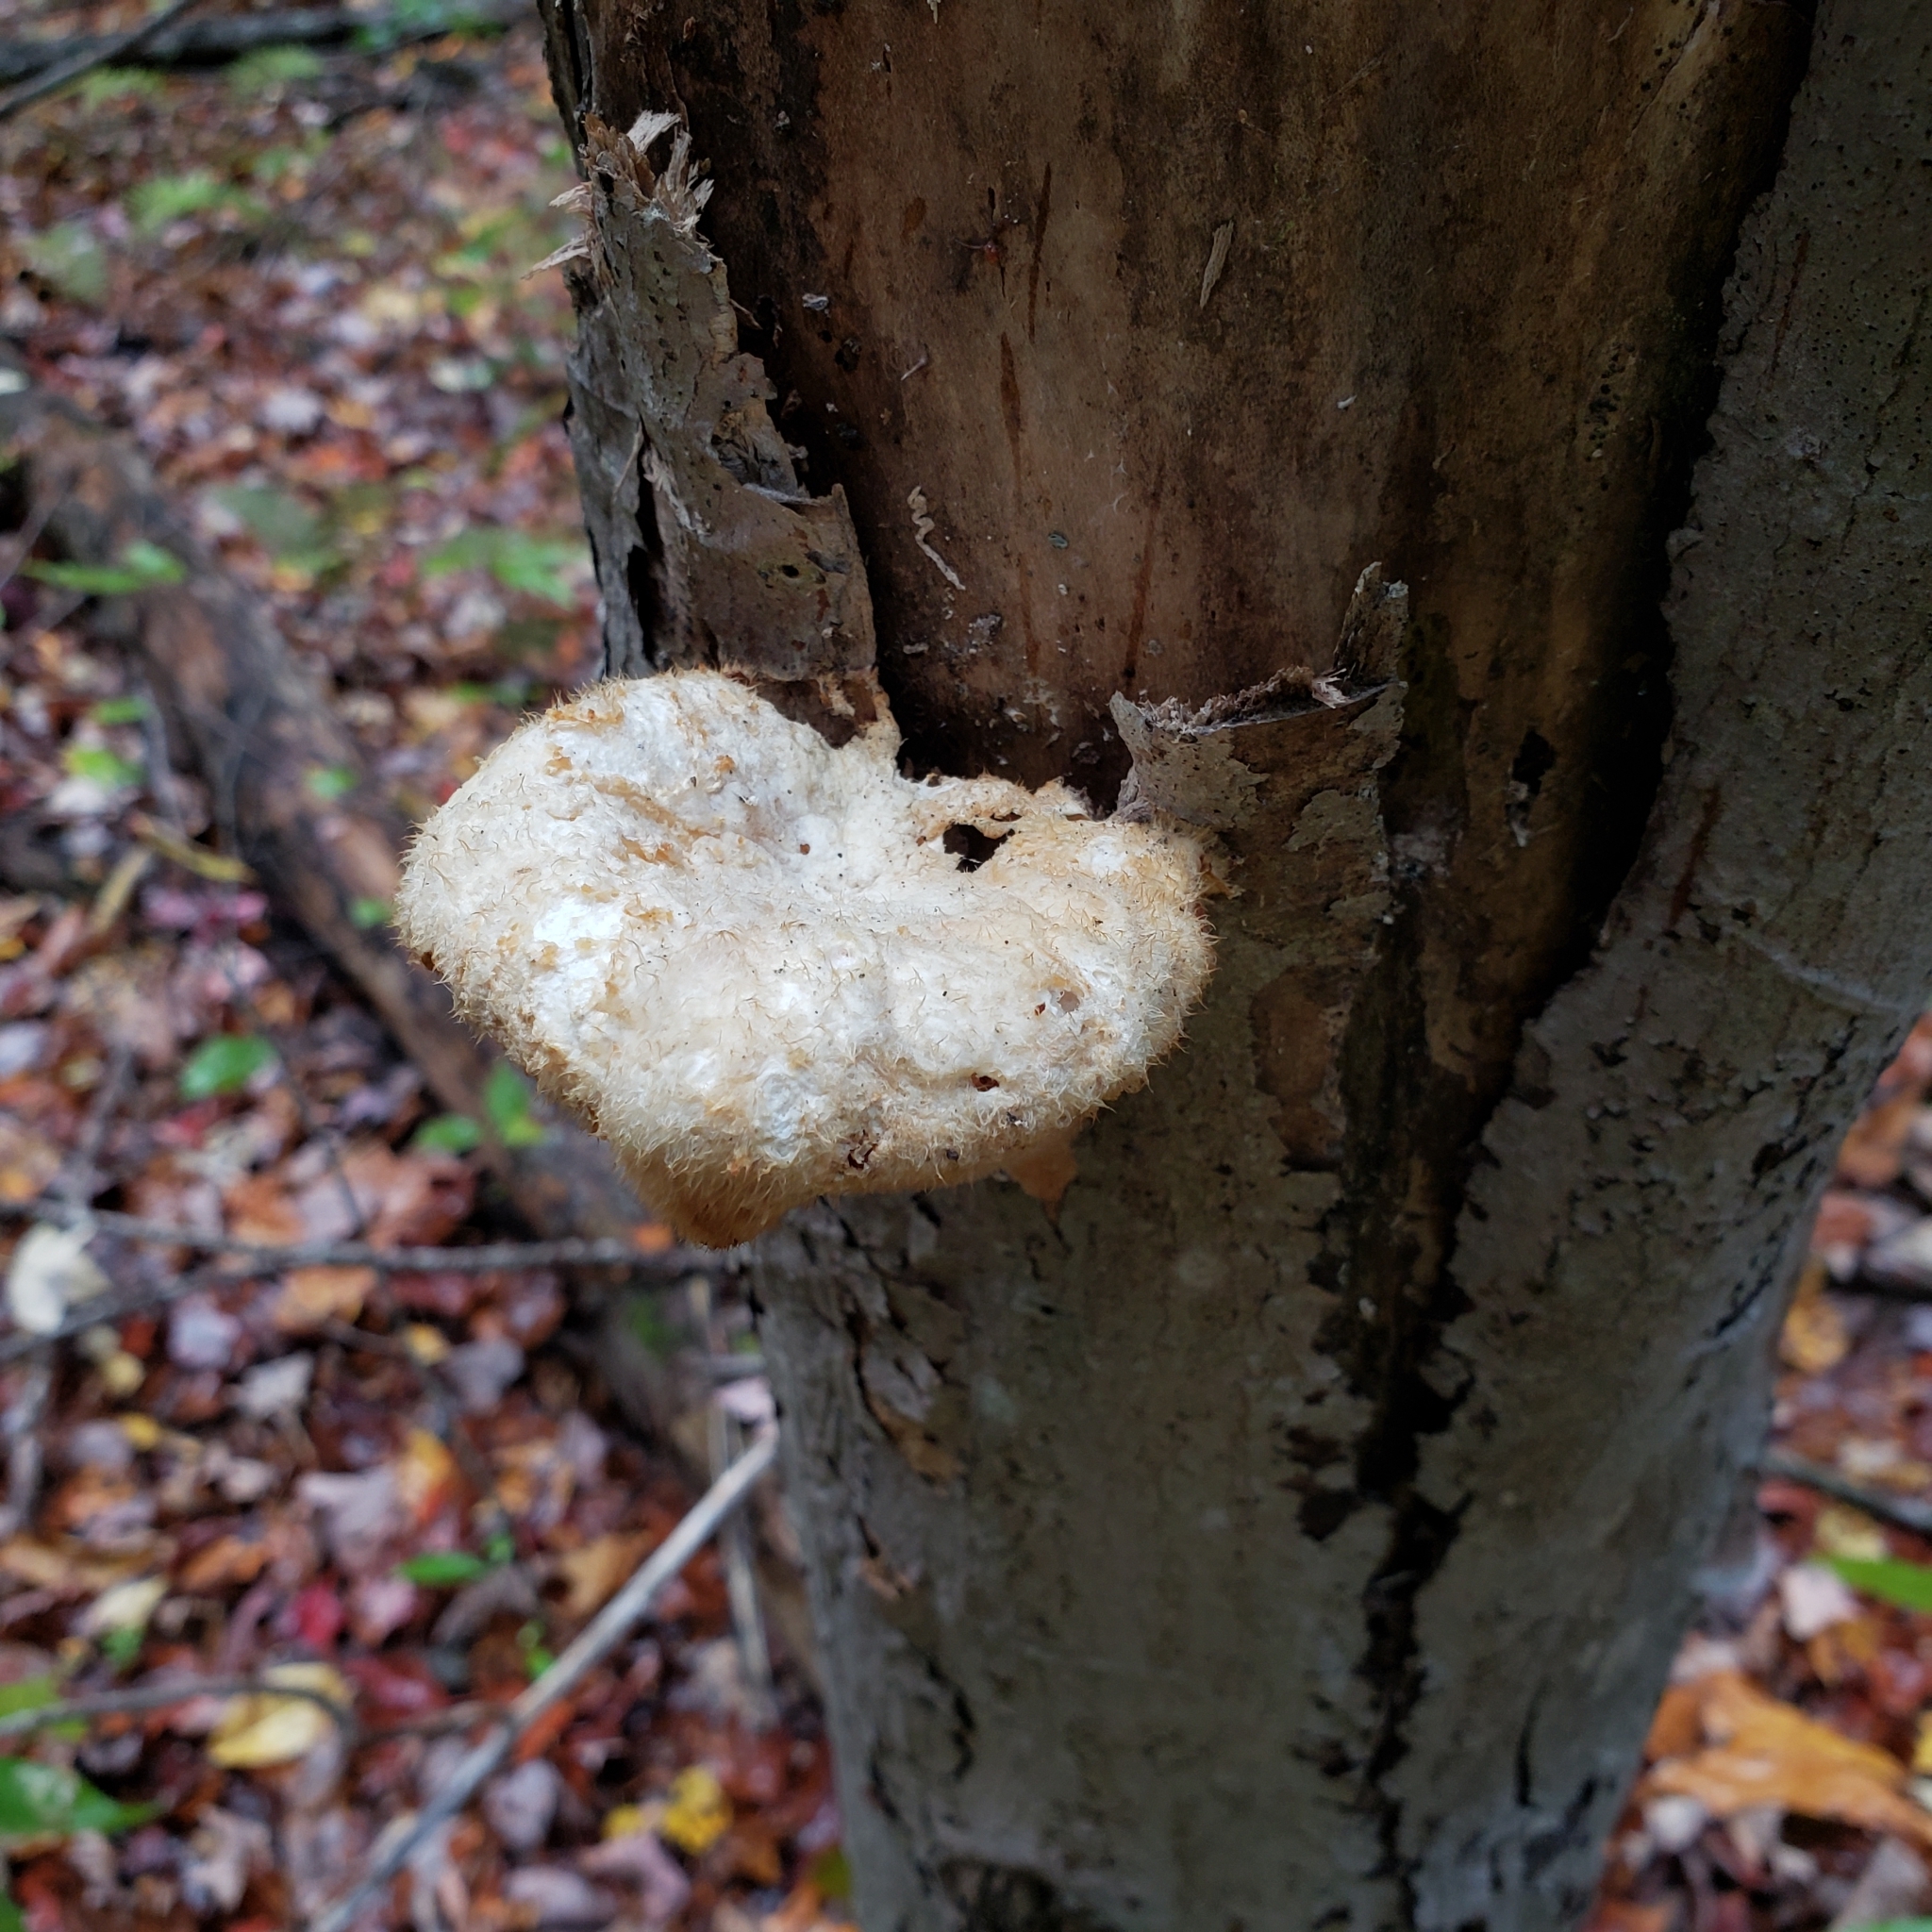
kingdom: Fungi
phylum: Basidiomycota
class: Agaricomycetes
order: Polyporales
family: Polyporaceae
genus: Lentinus
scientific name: Lentinus levis
